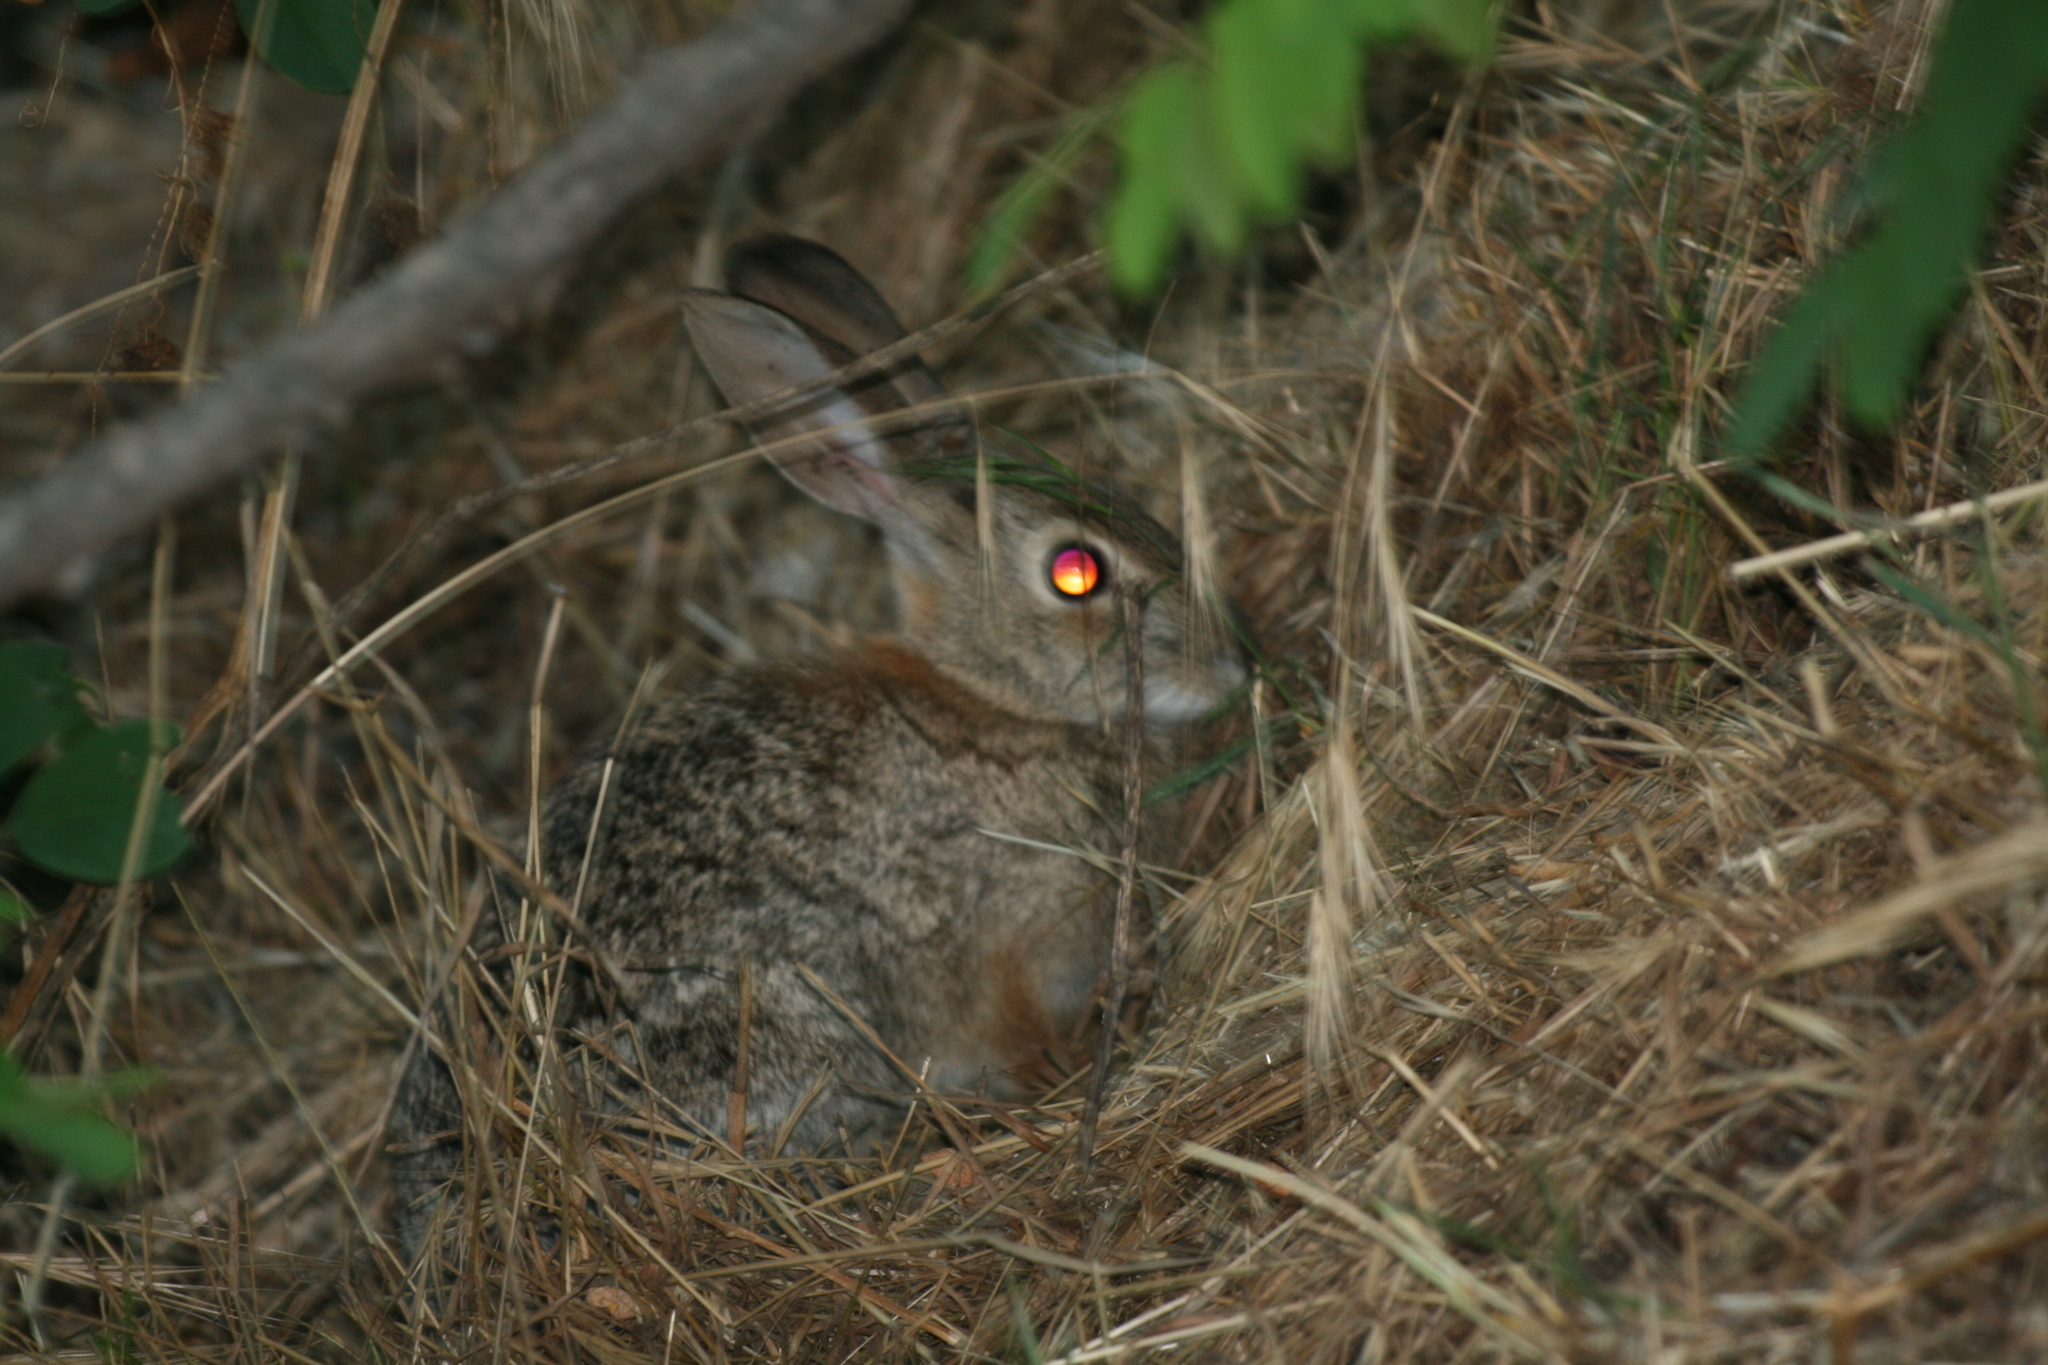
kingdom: Animalia
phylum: Chordata
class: Mammalia
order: Lagomorpha
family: Leporidae
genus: Sylvilagus
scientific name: Sylvilagus audubonii
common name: Desert cottontail
